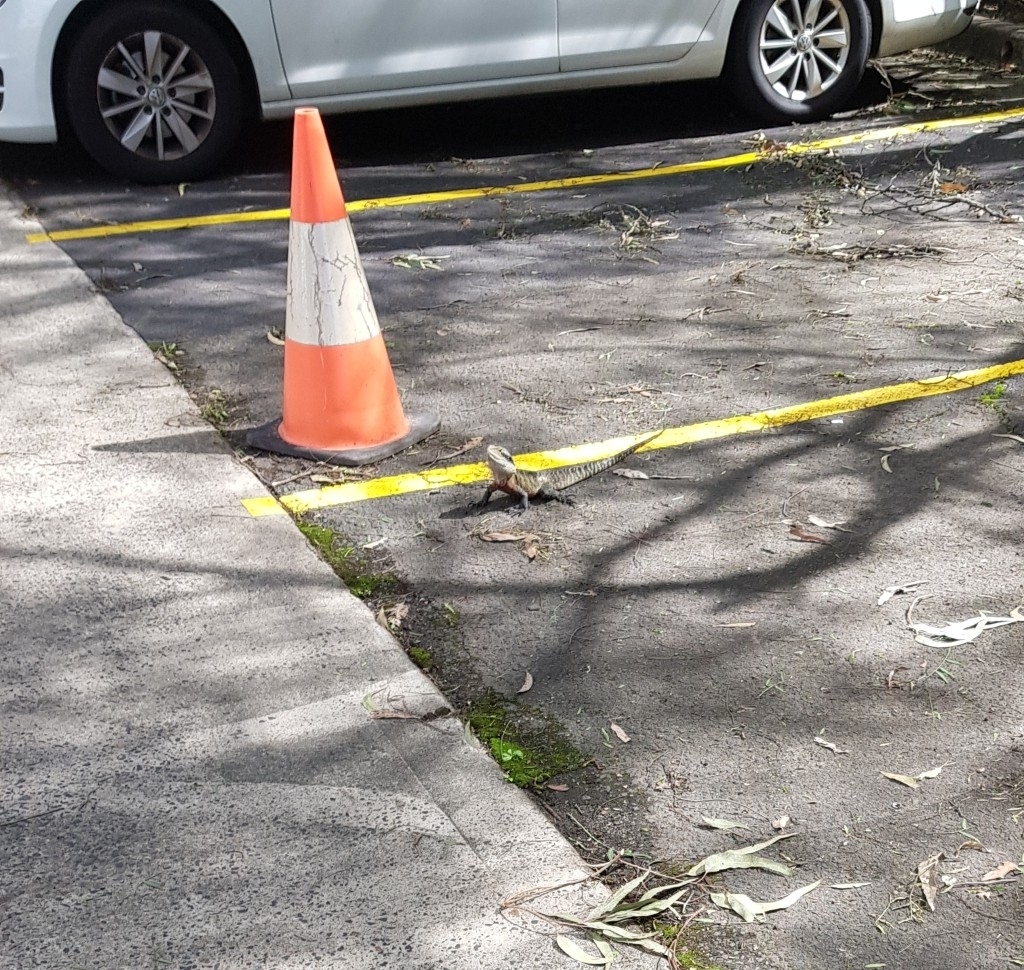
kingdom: Animalia
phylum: Chordata
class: Squamata
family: Agamidae
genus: Intellagama
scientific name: Intellagama lesueurii
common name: Eastern water dragon
